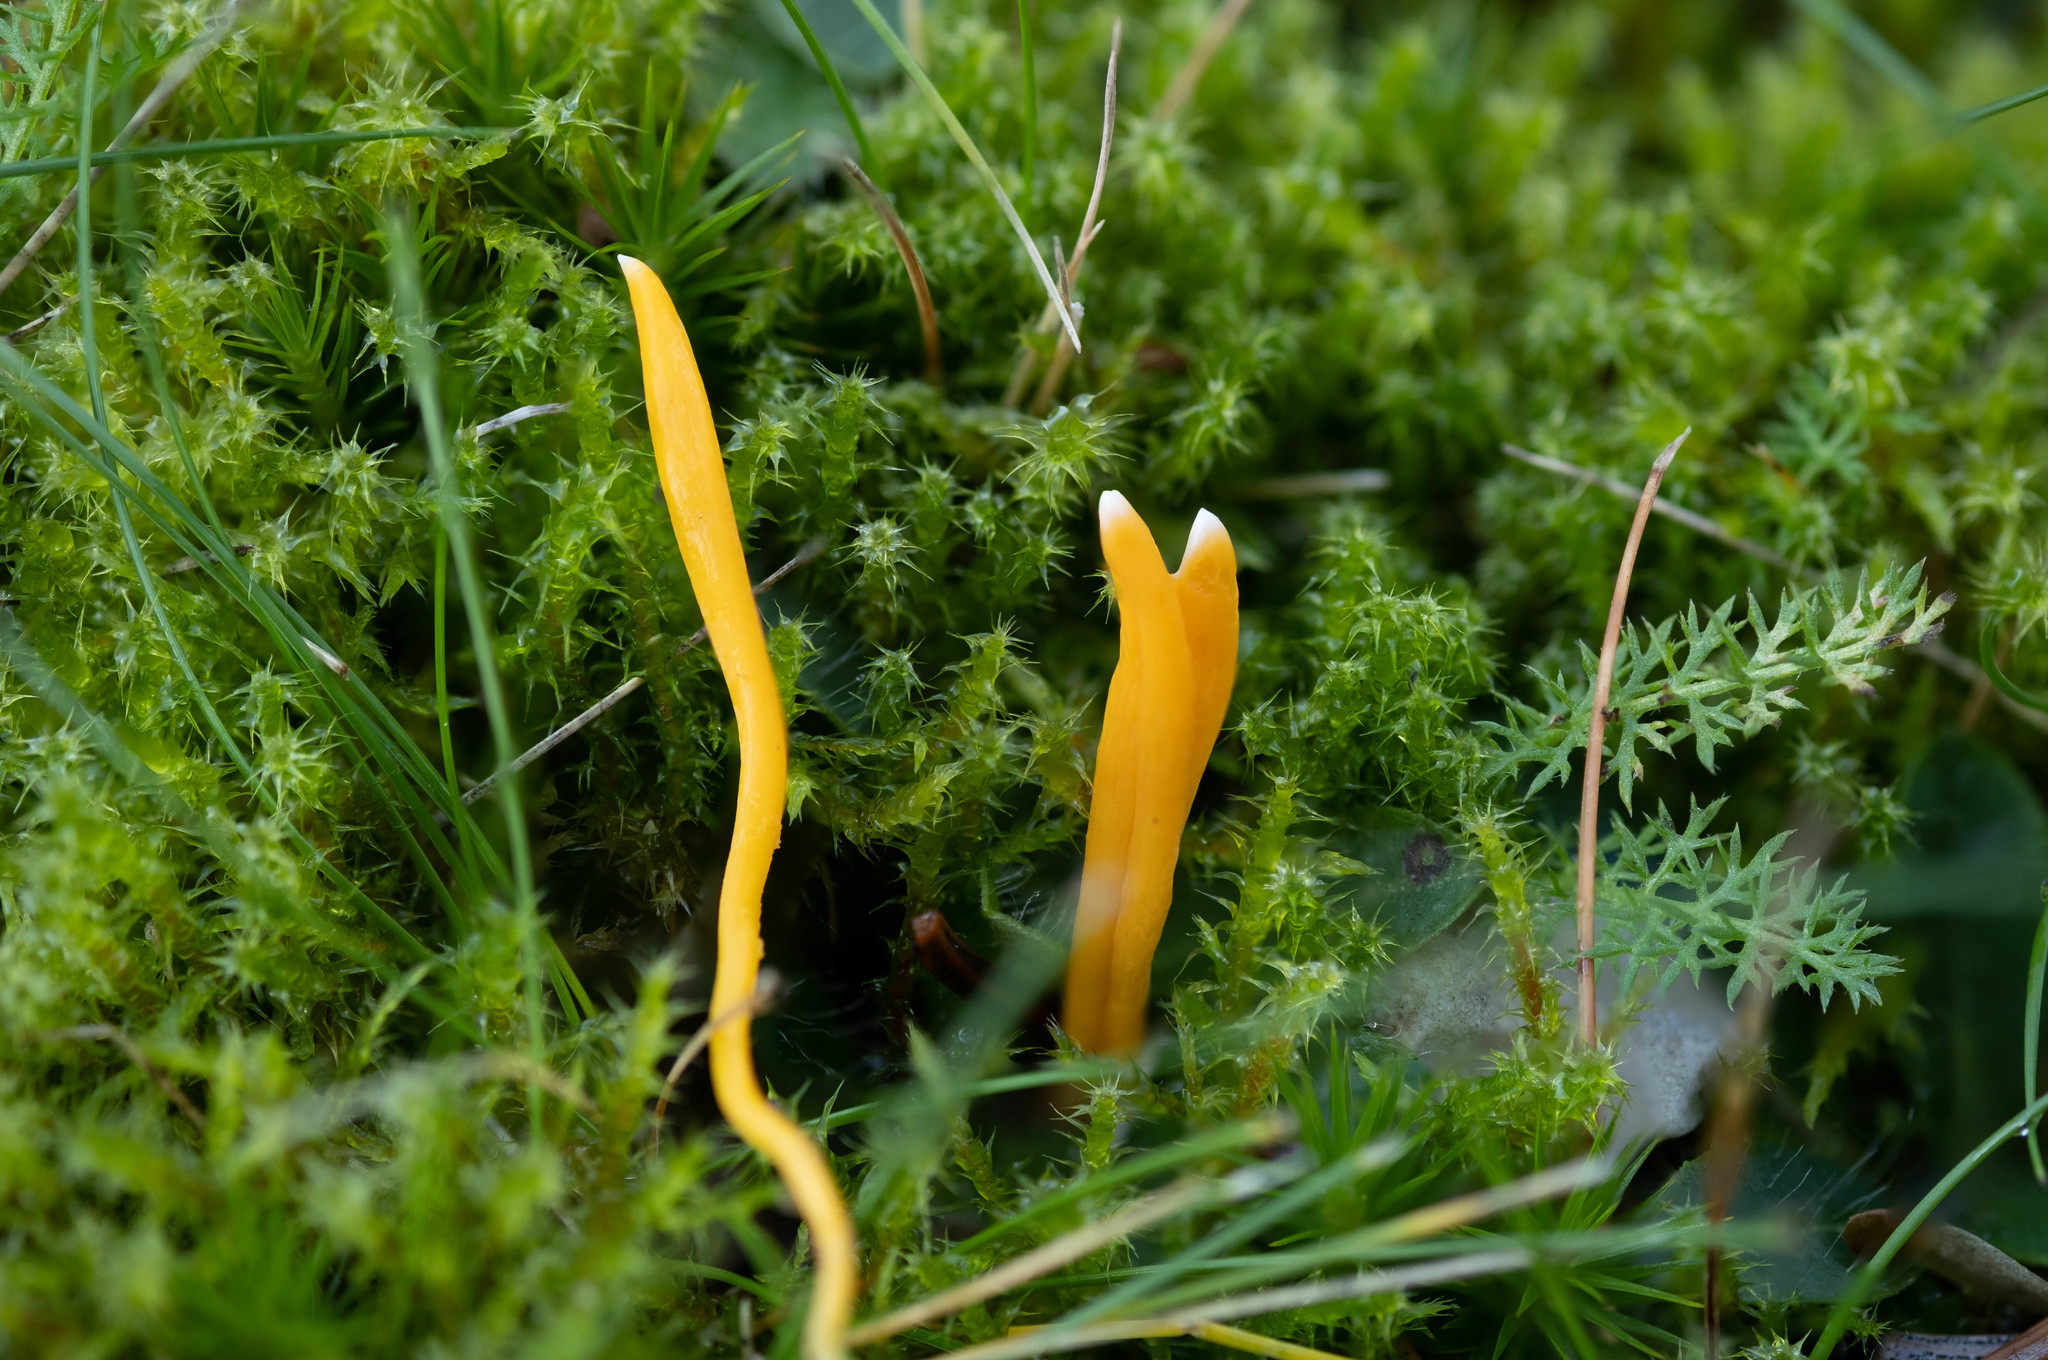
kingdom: Fungi
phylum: Basidiomycota
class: Agaricomycetes
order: Agaricales
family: Clavariaceae
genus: Clavulinopsis
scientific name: Clavulinopsis luteoalba
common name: Apricot club
